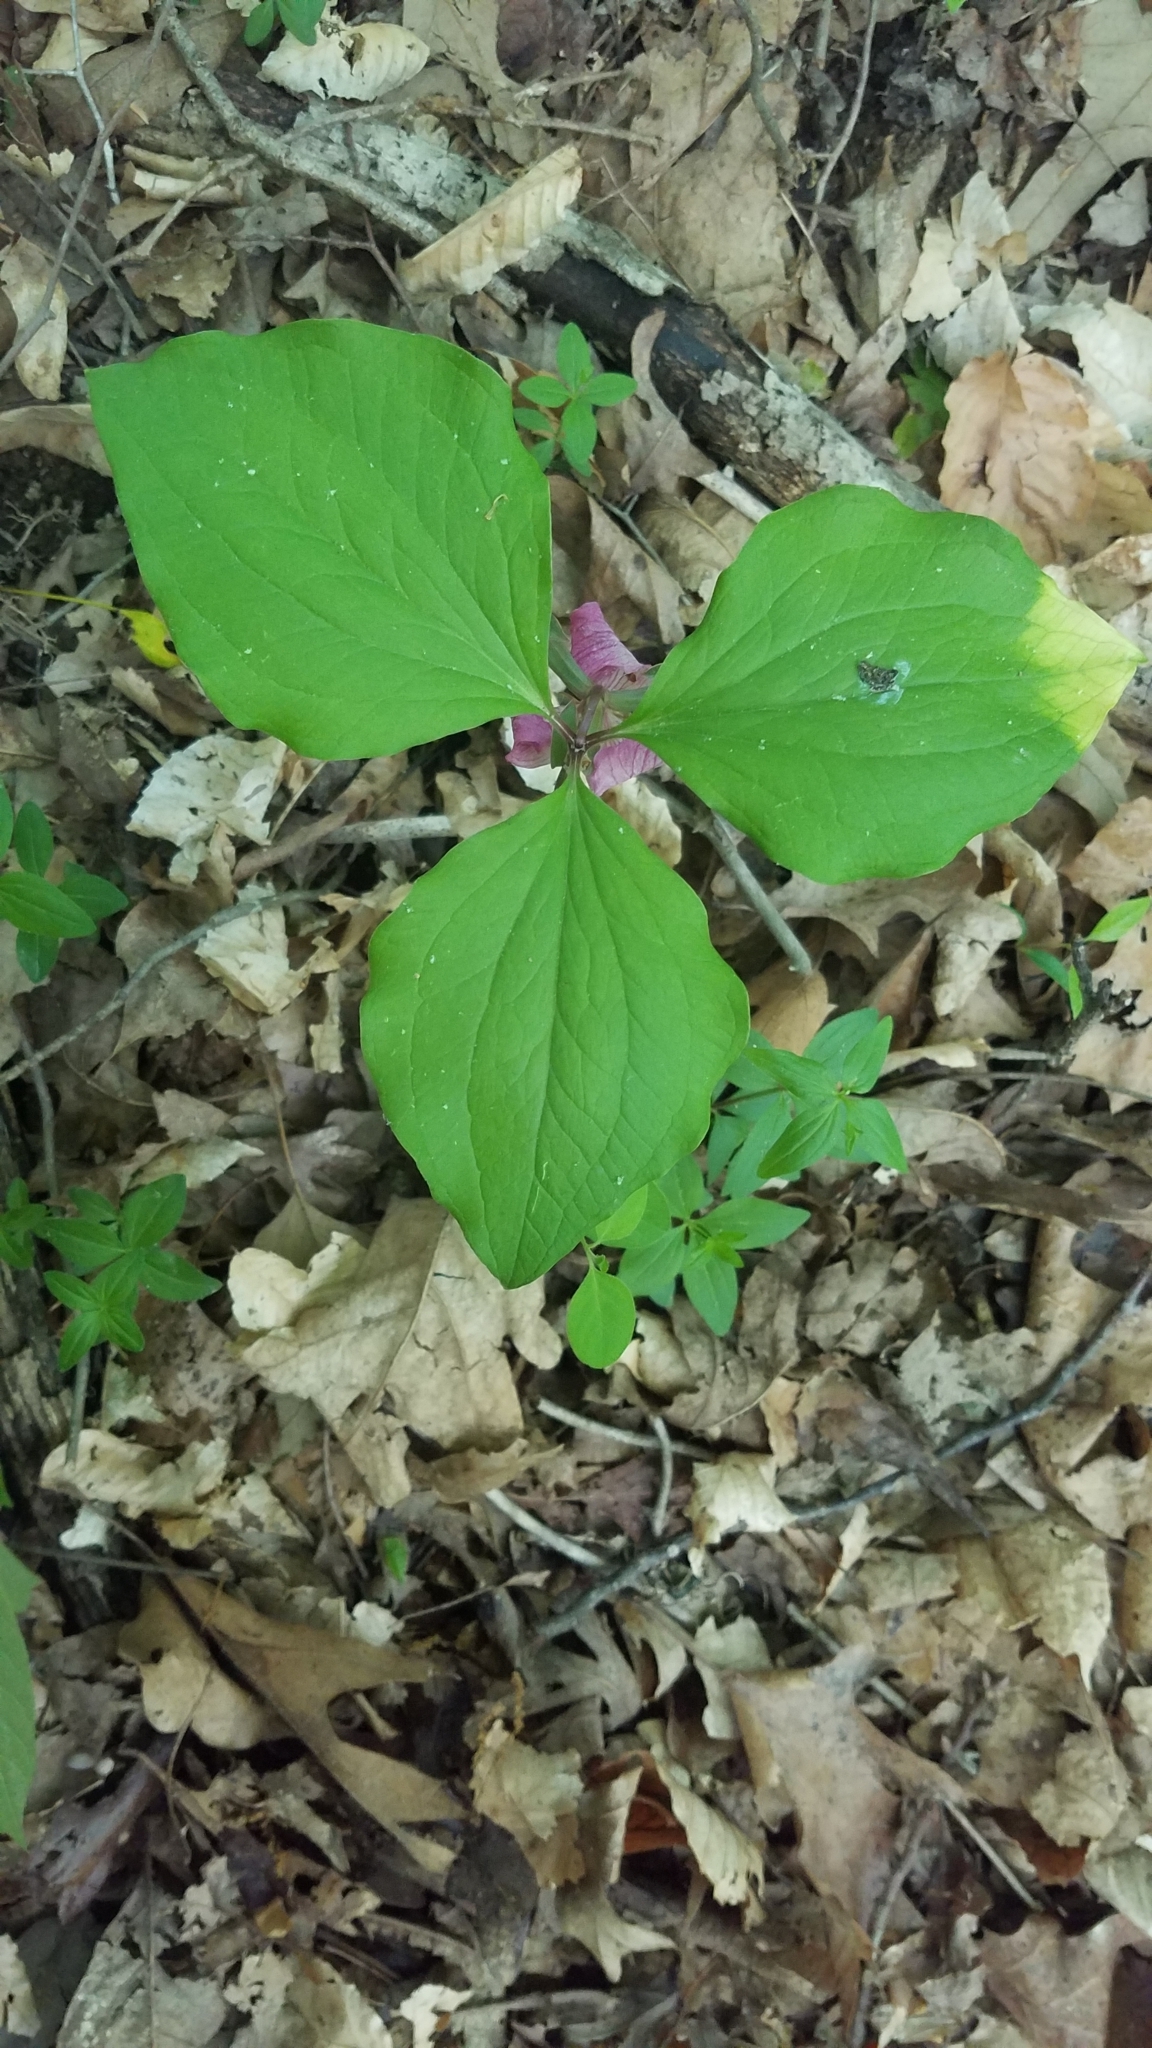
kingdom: Plantae
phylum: Tracheophyta
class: Liliopsida
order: Liliales
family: Melanthiaceae
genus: Trillium
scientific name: Trillium catesbaei
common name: Bashful trillium
